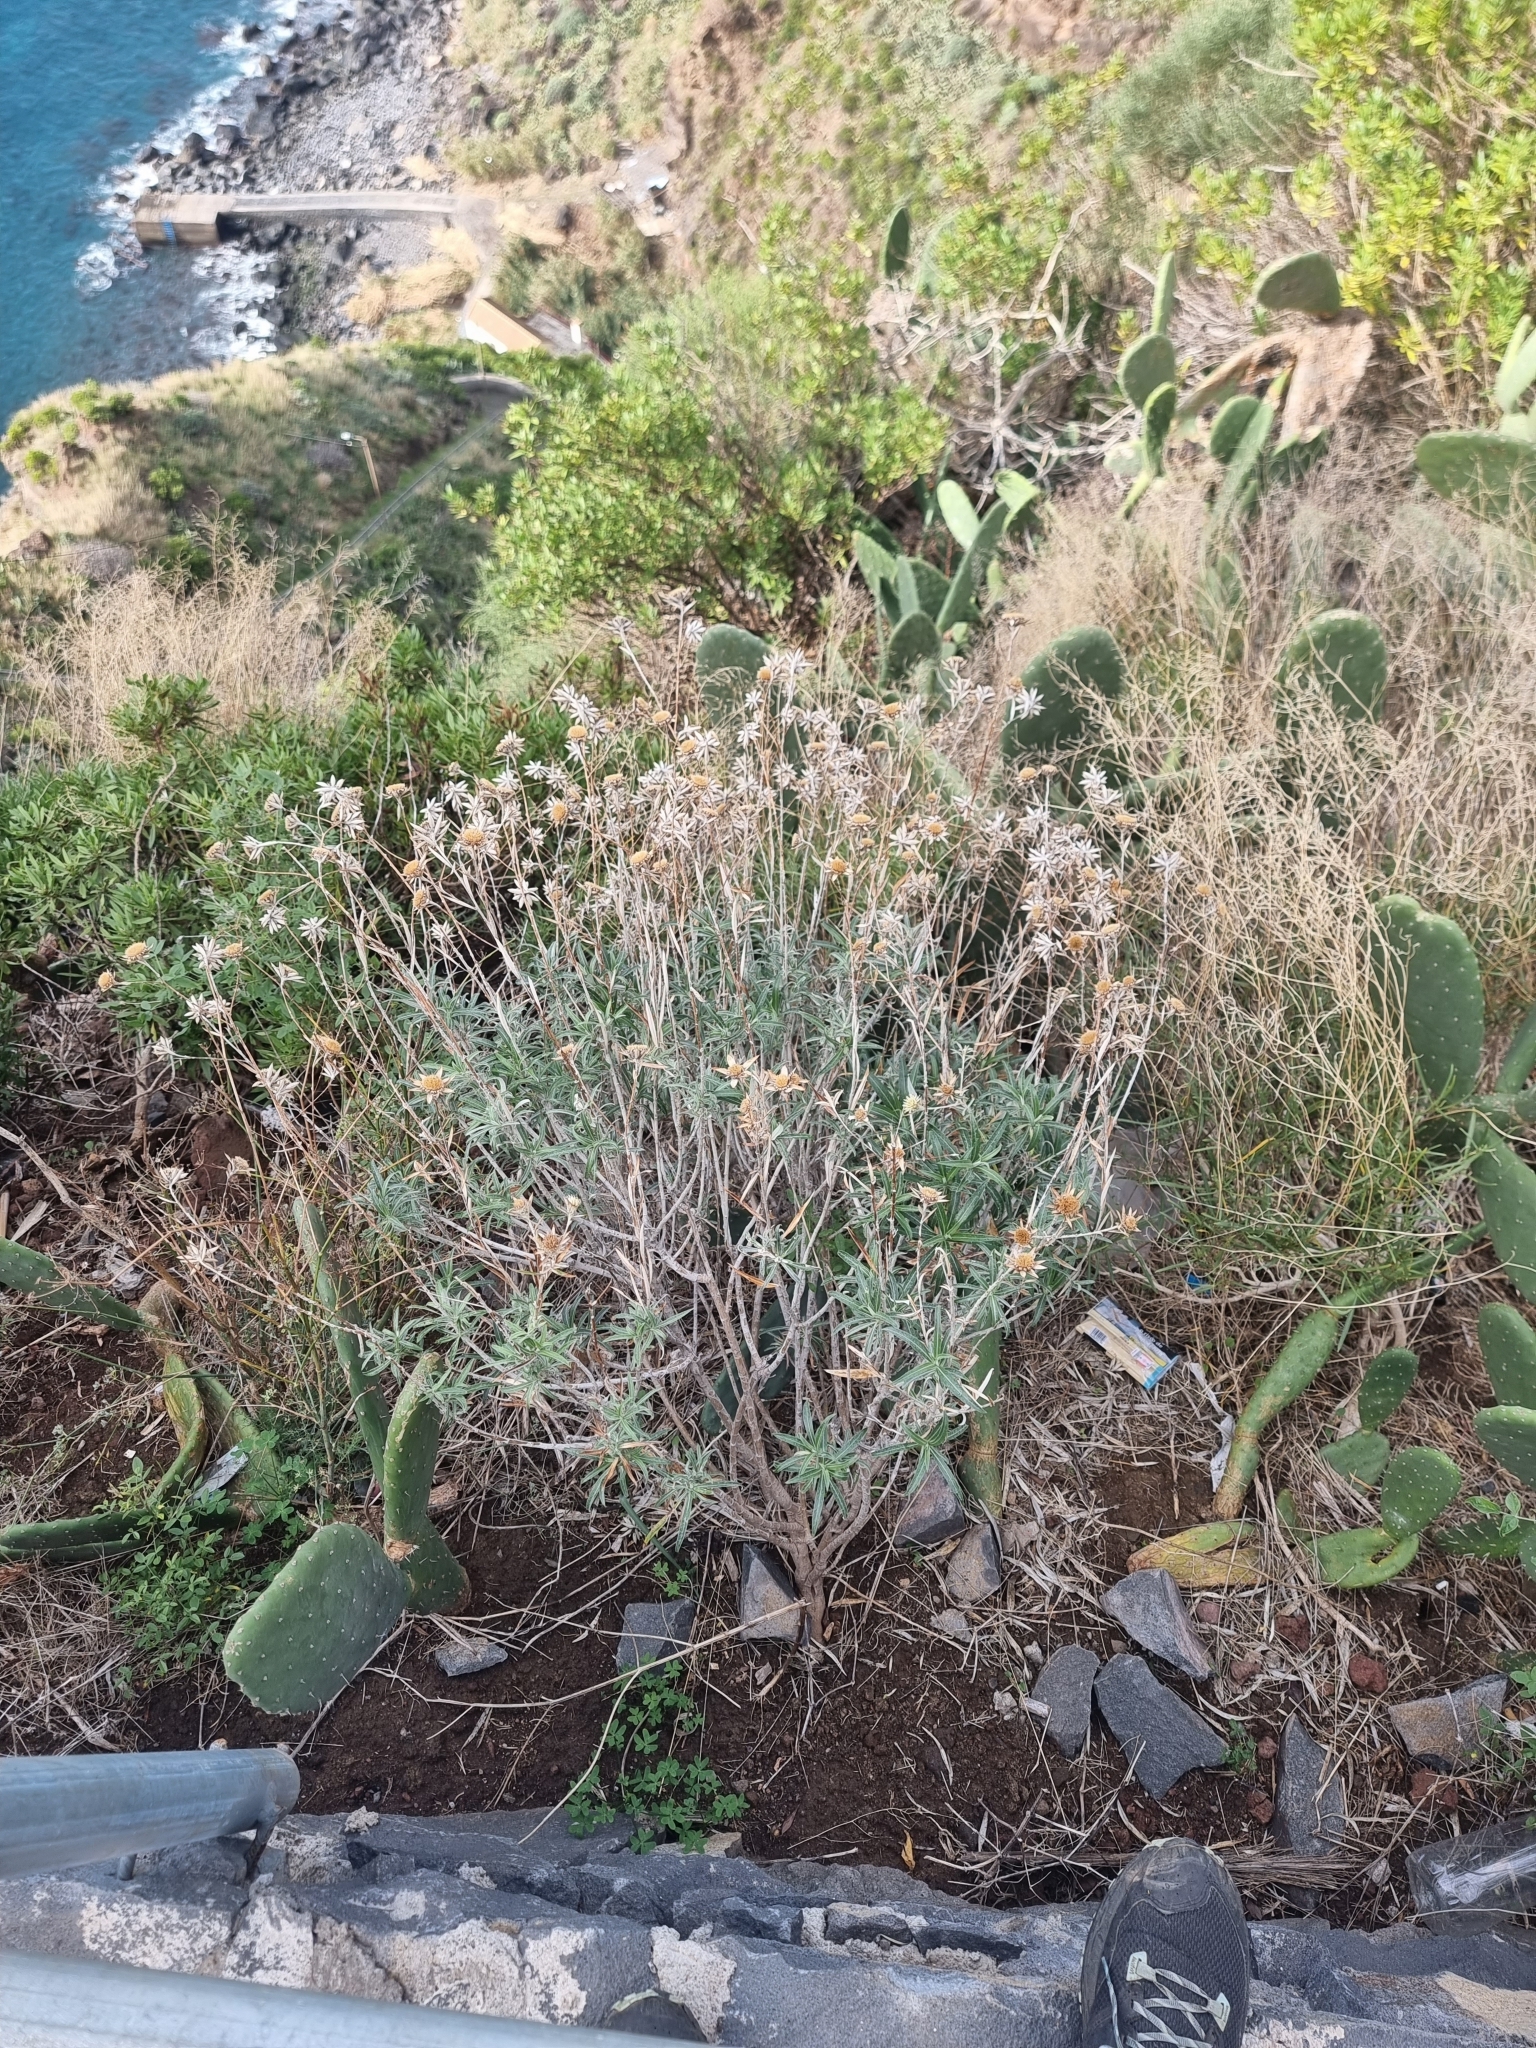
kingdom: Plantae
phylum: Tracheophyta
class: Magnoliopsida
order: Asterales
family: Asteraceae
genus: Carlina
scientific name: Carlina salicifolia
